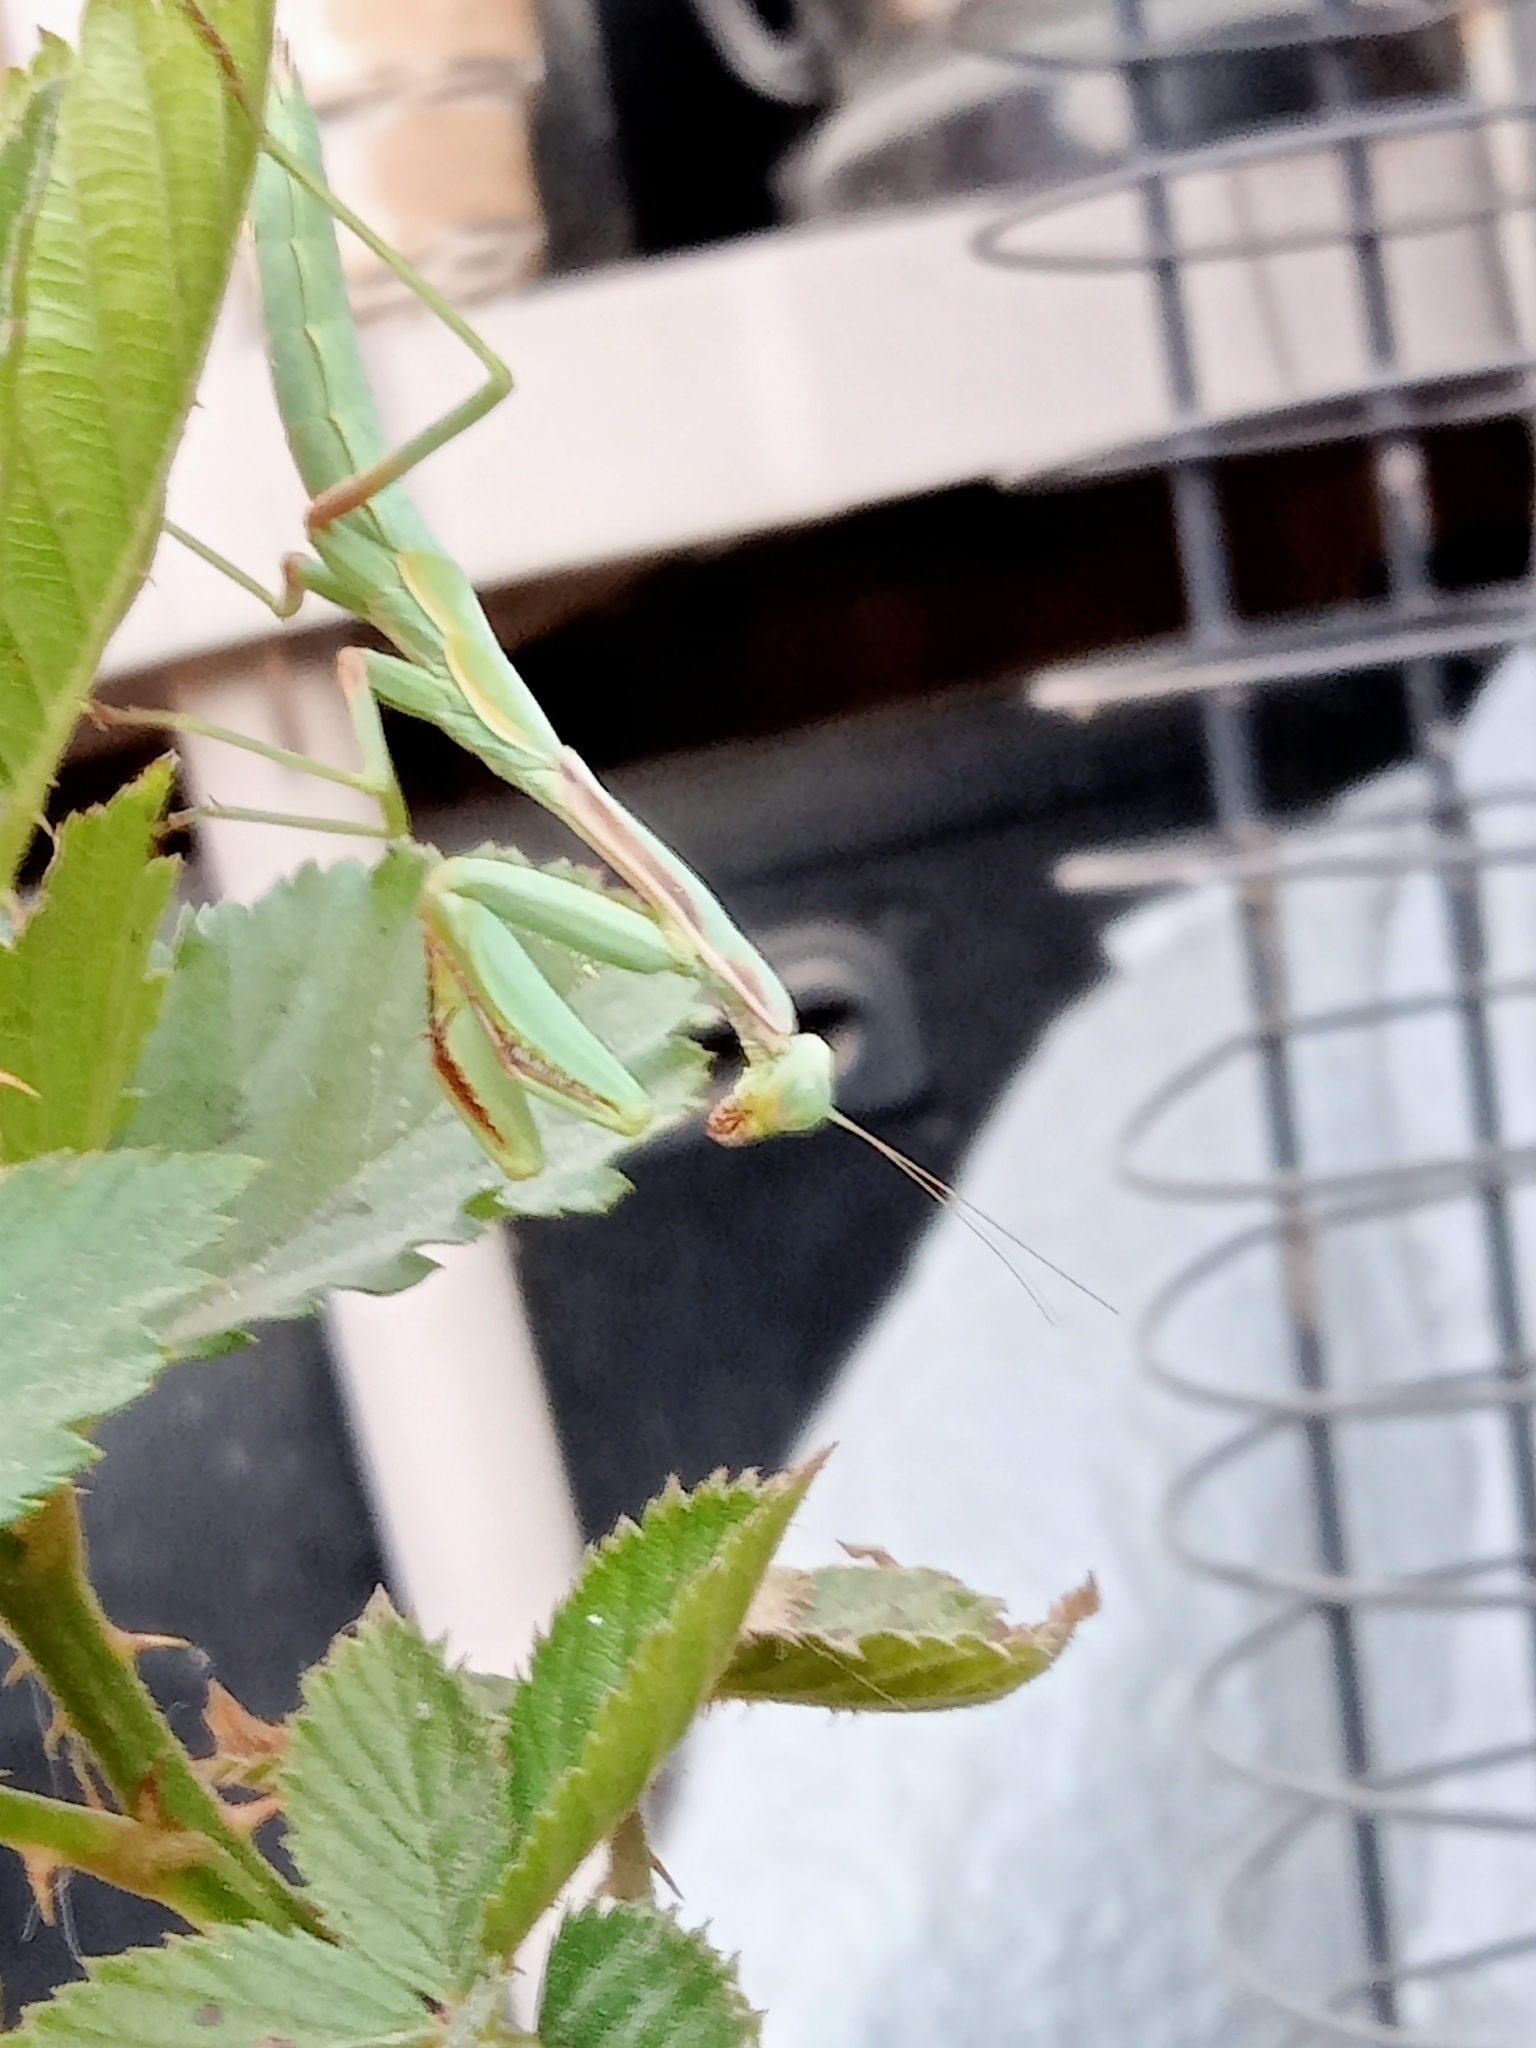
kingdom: Animalia
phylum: Arthropoda
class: Insecta
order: Mantodea
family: Eremiaphilidae
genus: Iris
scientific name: Iris oratoria
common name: Mediterranean mantis
